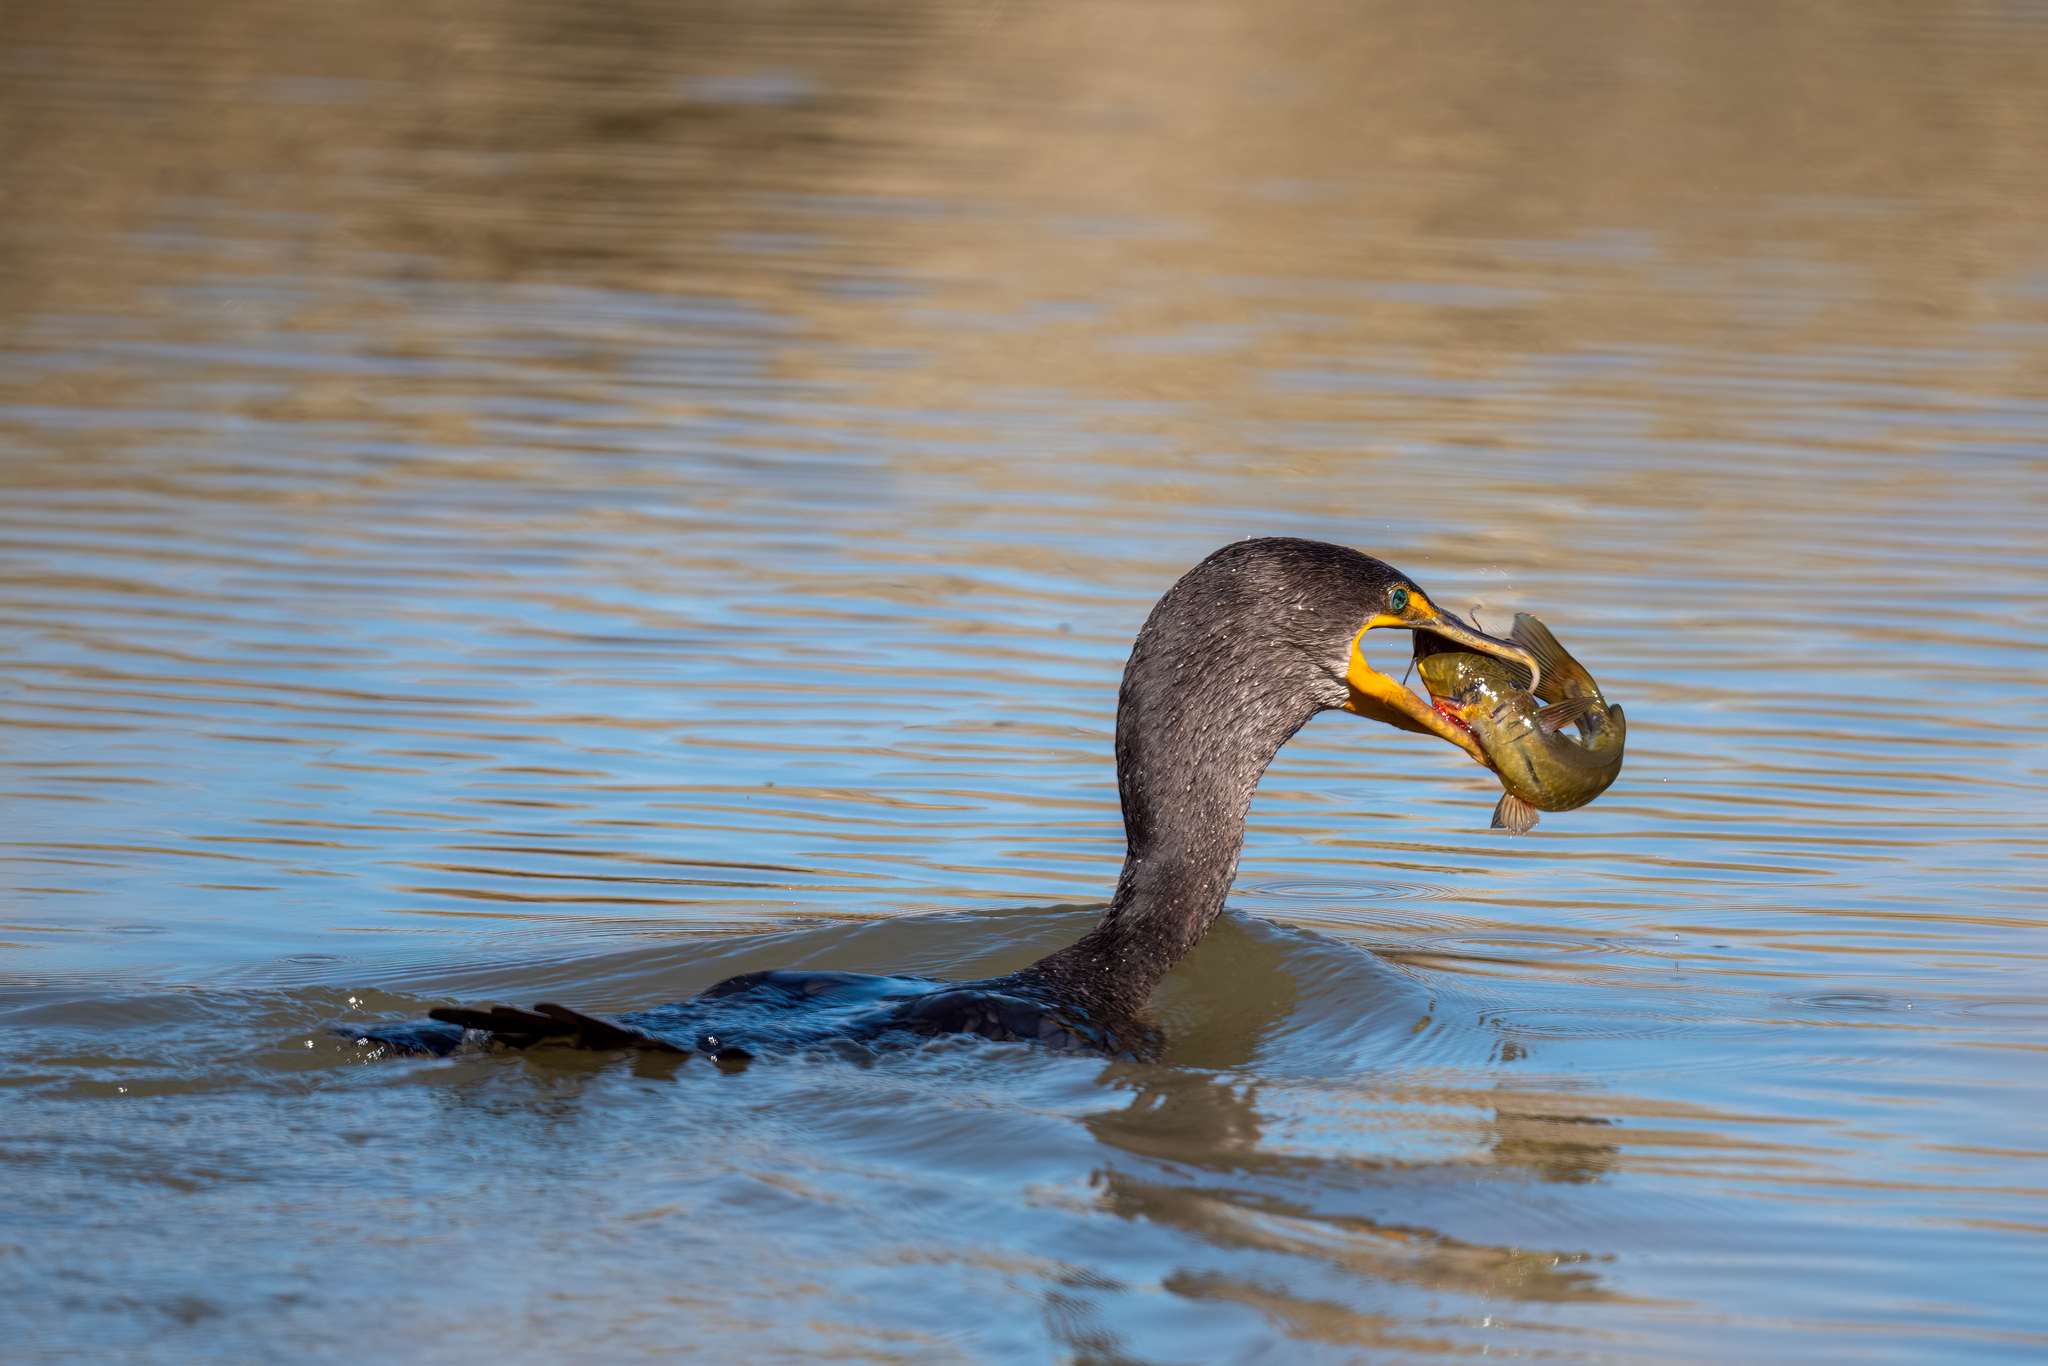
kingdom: Animalia
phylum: Chordata
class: Aves
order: Suliformes
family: Phalacrocoracidae
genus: Phalacrocorax
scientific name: Phalacrocorax auritus
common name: Double-crested cormorant
